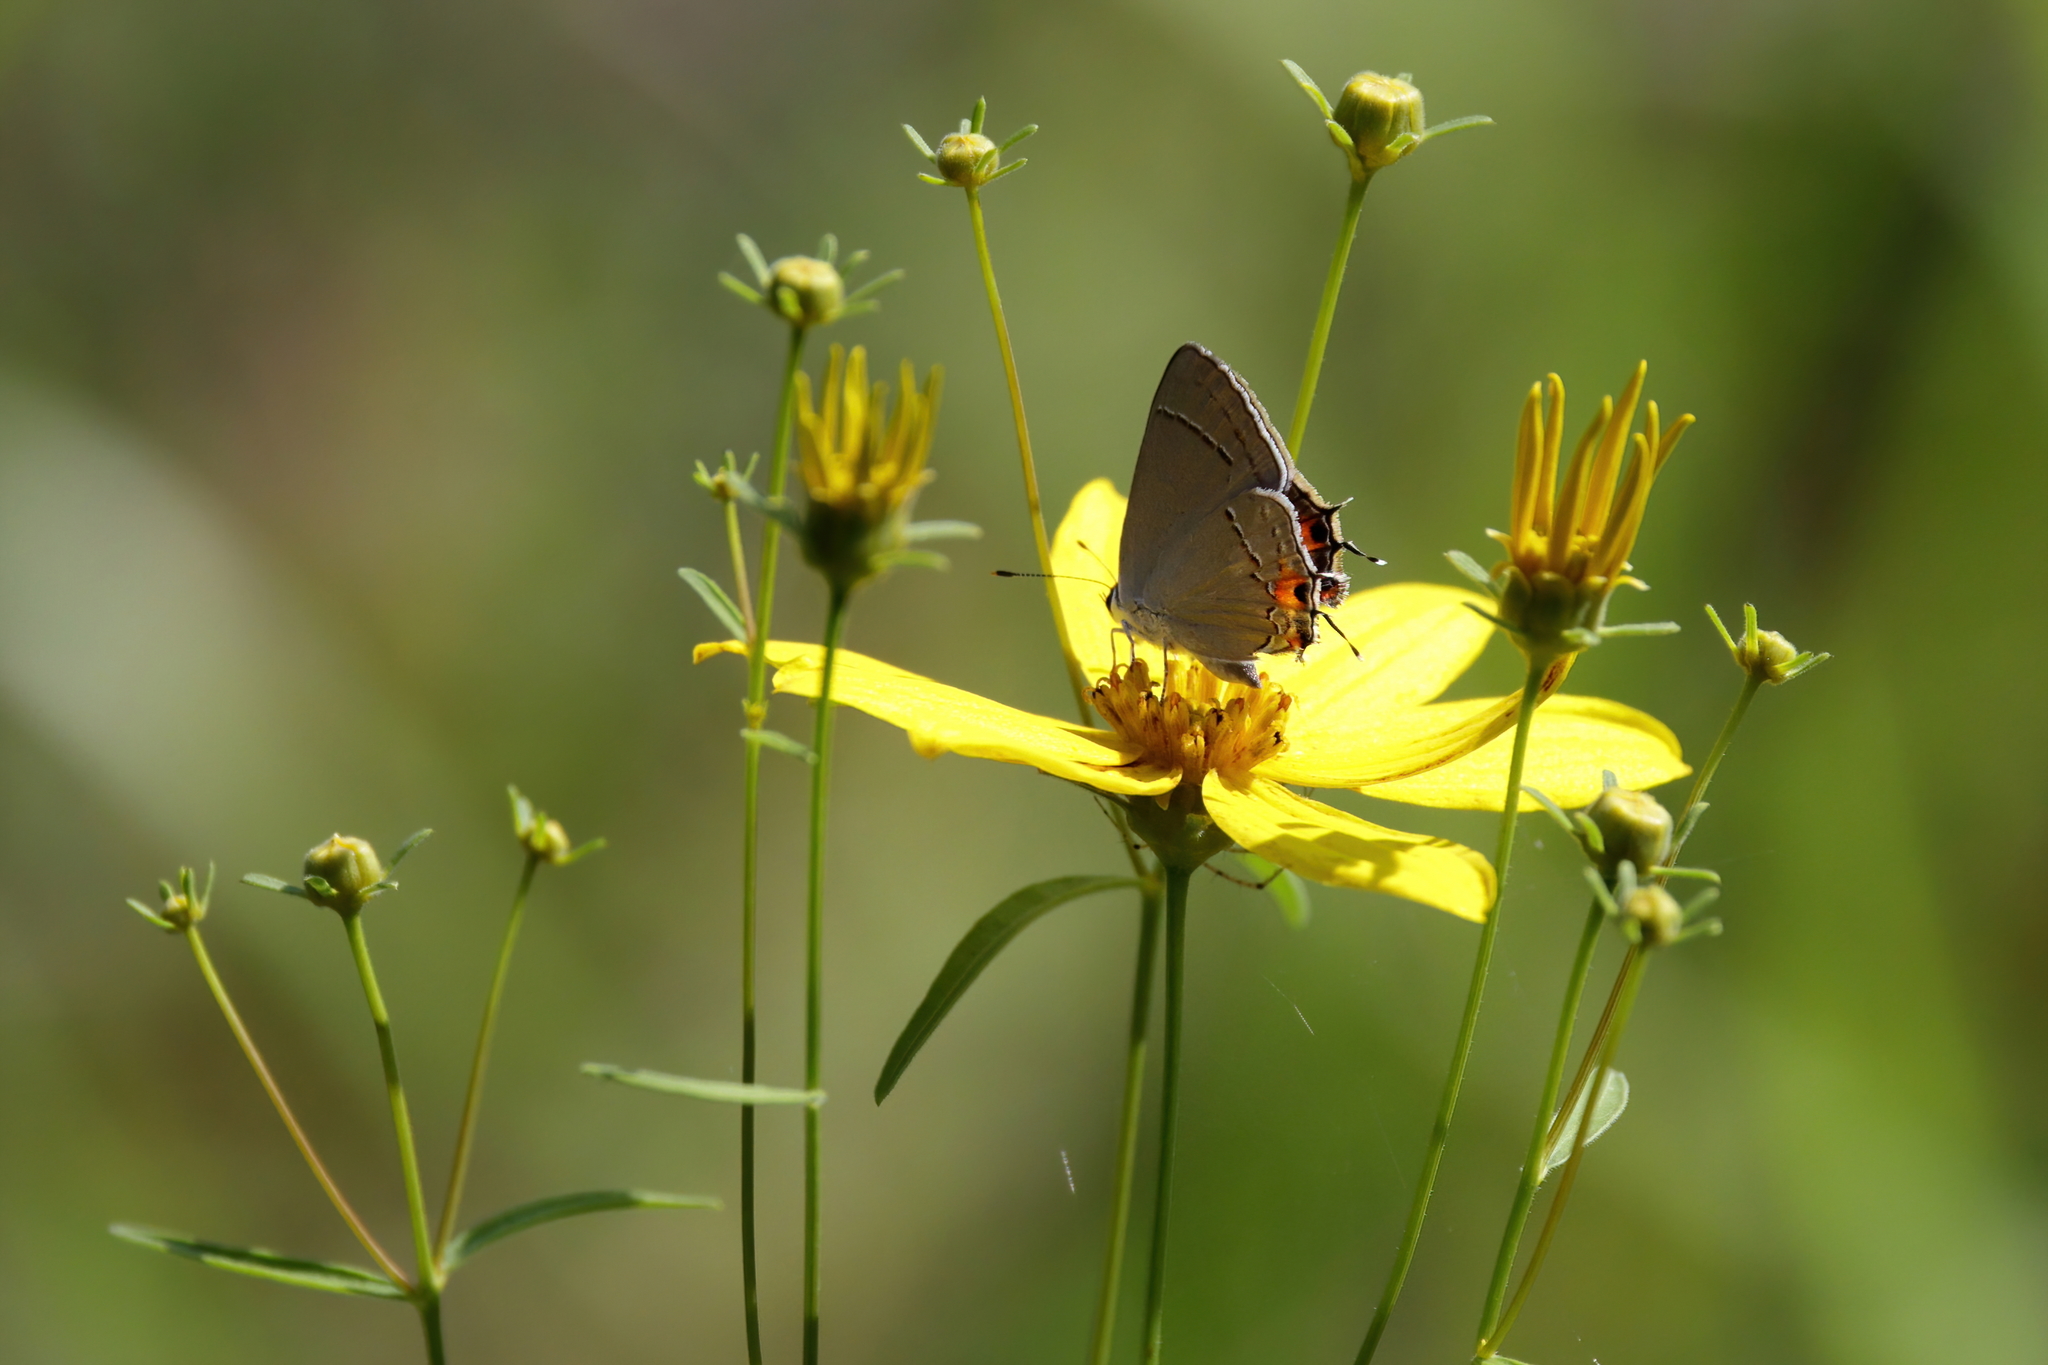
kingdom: Animalia
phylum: Arthropoda
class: Insecta
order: Lepidoptera
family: Lycaenidae
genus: Strymon
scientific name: Strymon melinus
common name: Gray hairstreak
